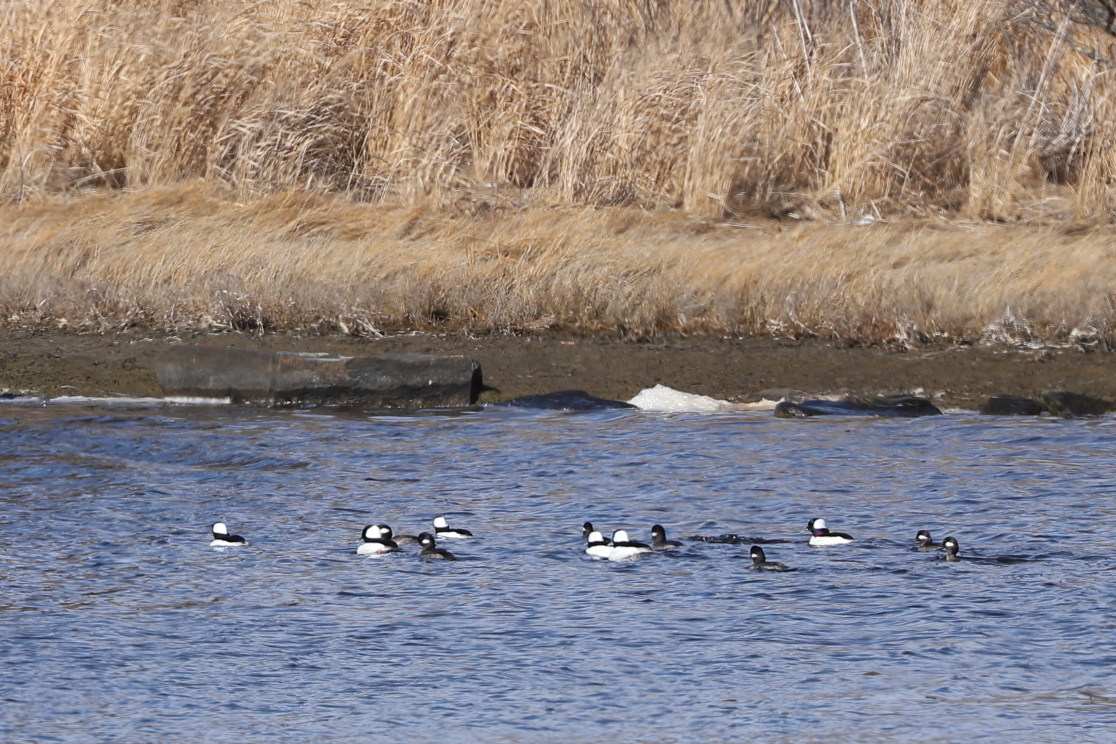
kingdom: Animalia
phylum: Chordata
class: Aves
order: Anseriformes
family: Anatidae
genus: Bucephala
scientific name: Bucephala albeola
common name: Bufflehead
